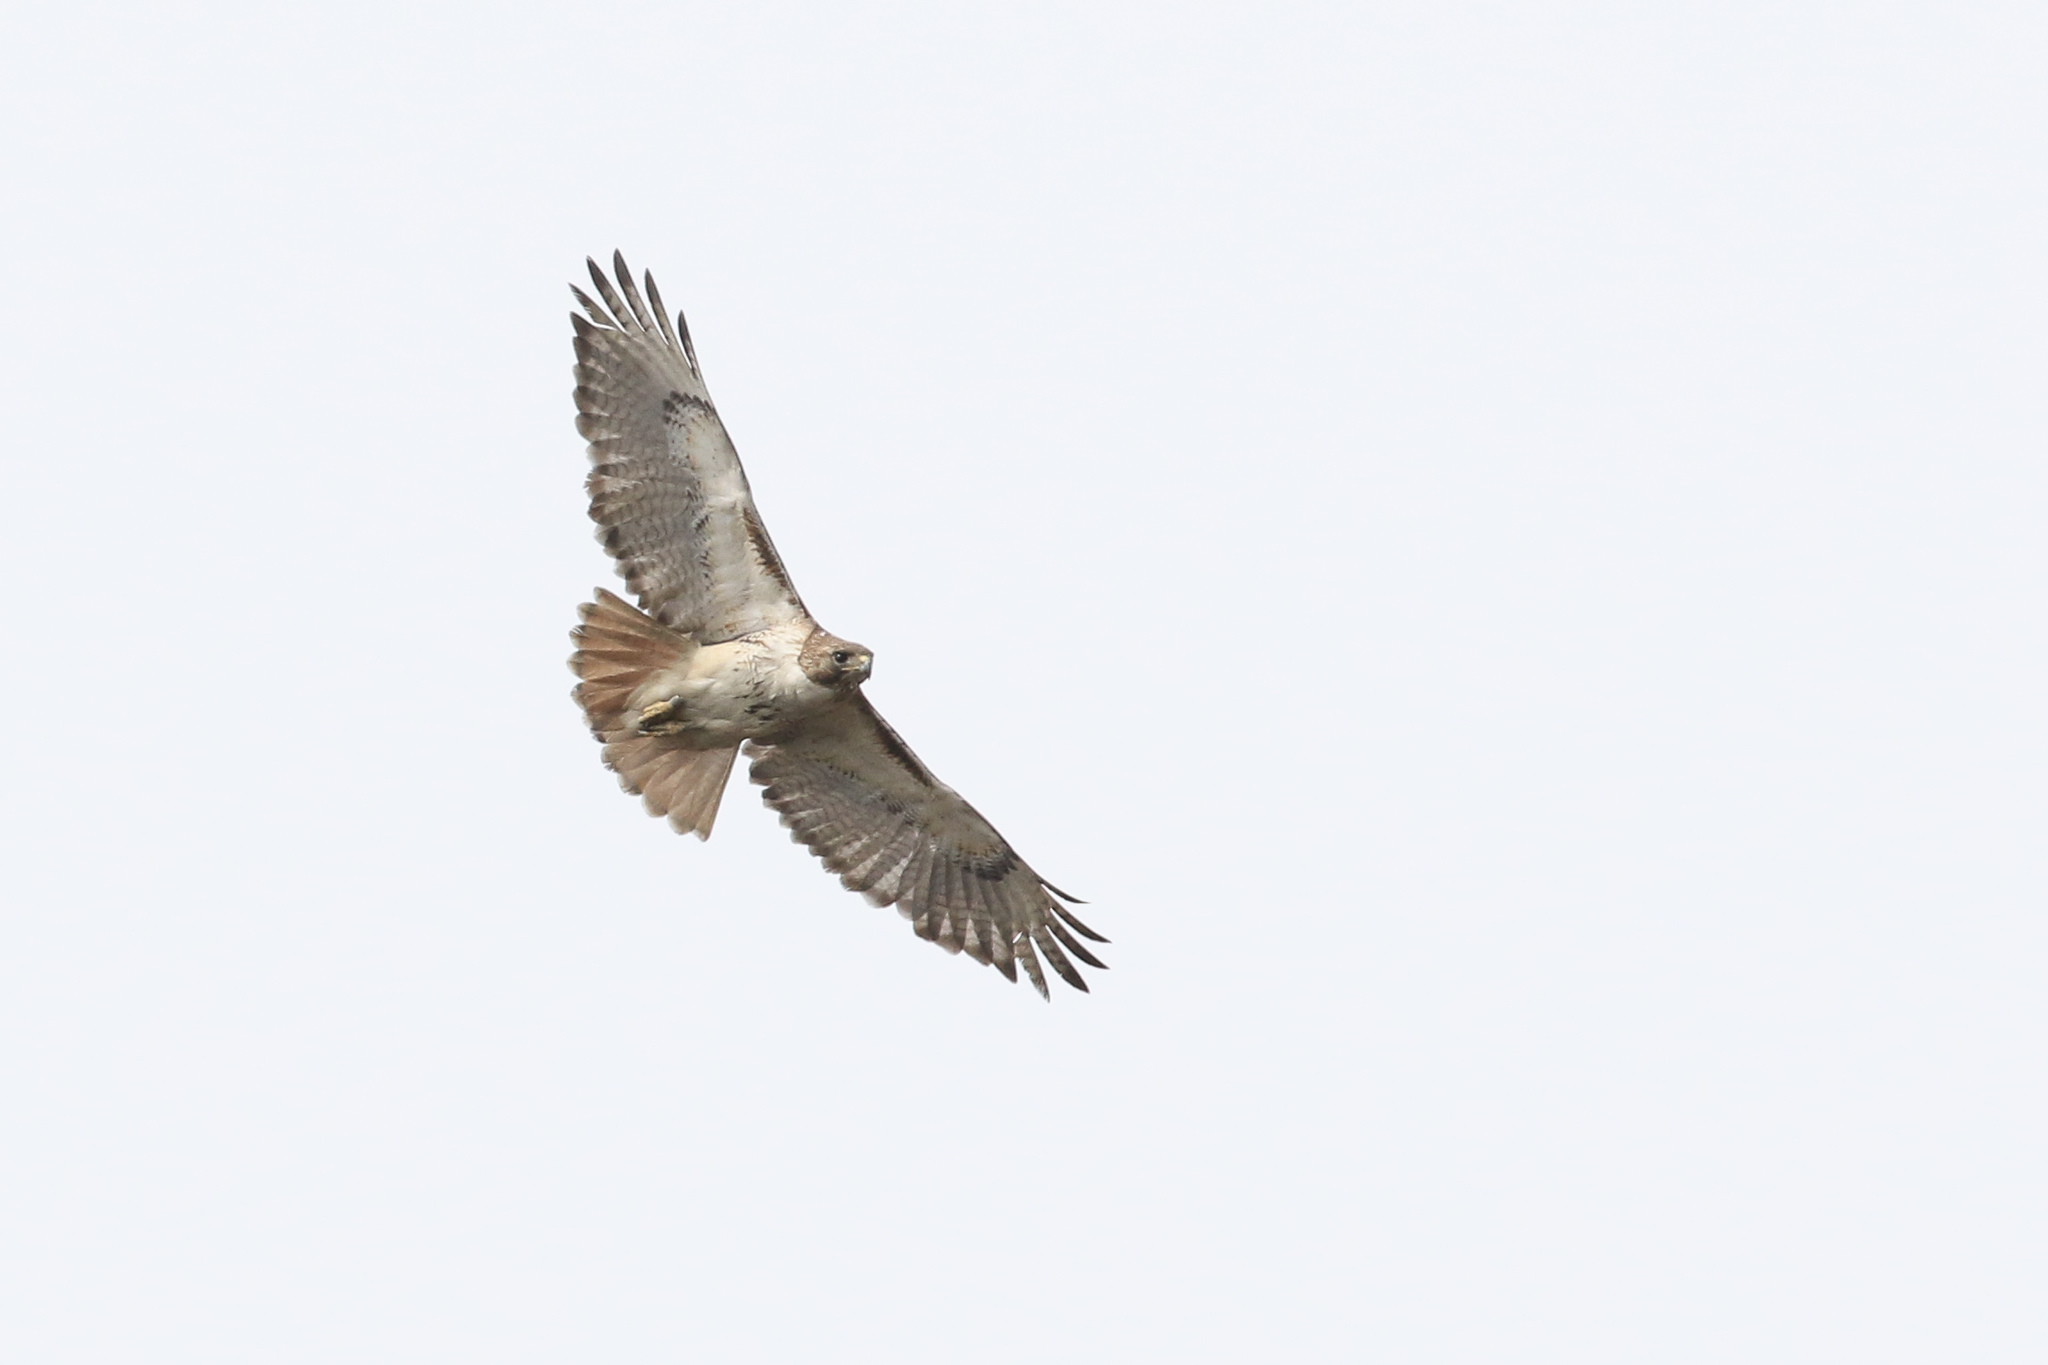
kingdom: Animalia
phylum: Chordata
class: Aves
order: Accipitriformes
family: Accipitridae
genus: Buteo
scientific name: Buteo jamaicensis
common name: Red-tailed hawk
